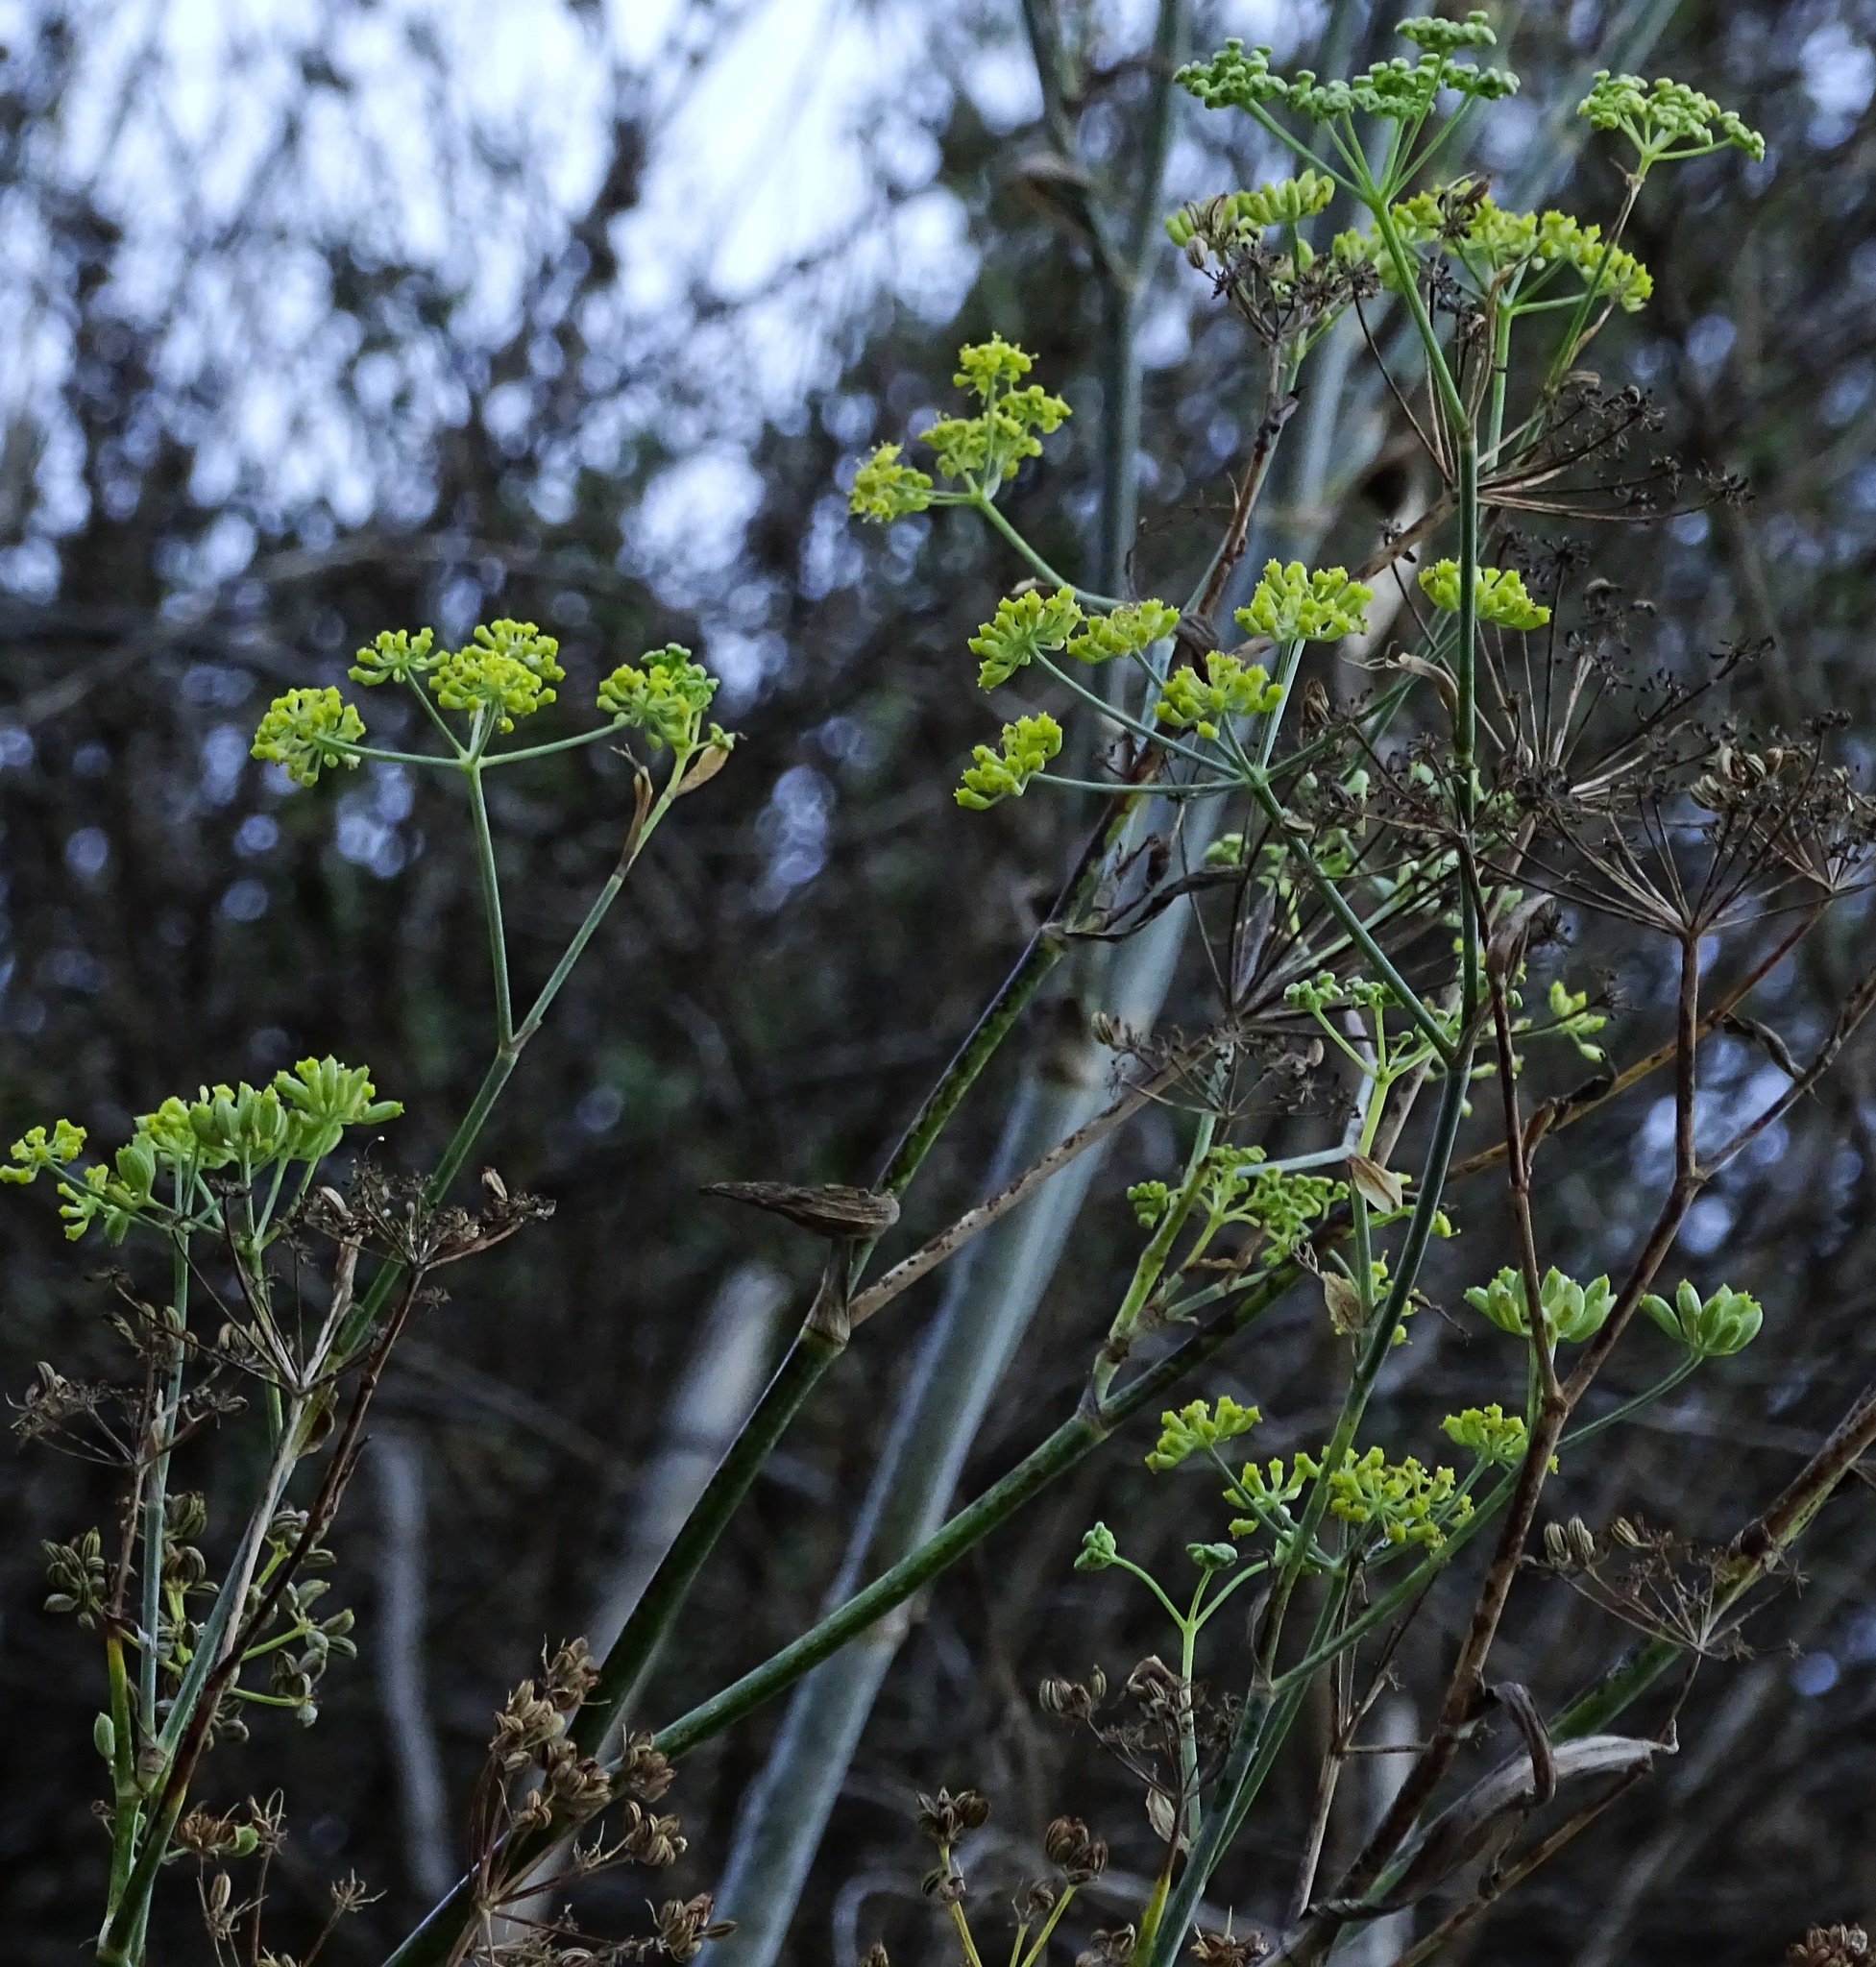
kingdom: Plantae
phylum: Tracheophyta
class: Magnoliopsida
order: Apiales
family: Apiaceae
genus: Foeniculum
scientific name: Foeniculum vulgare
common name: Fennel
